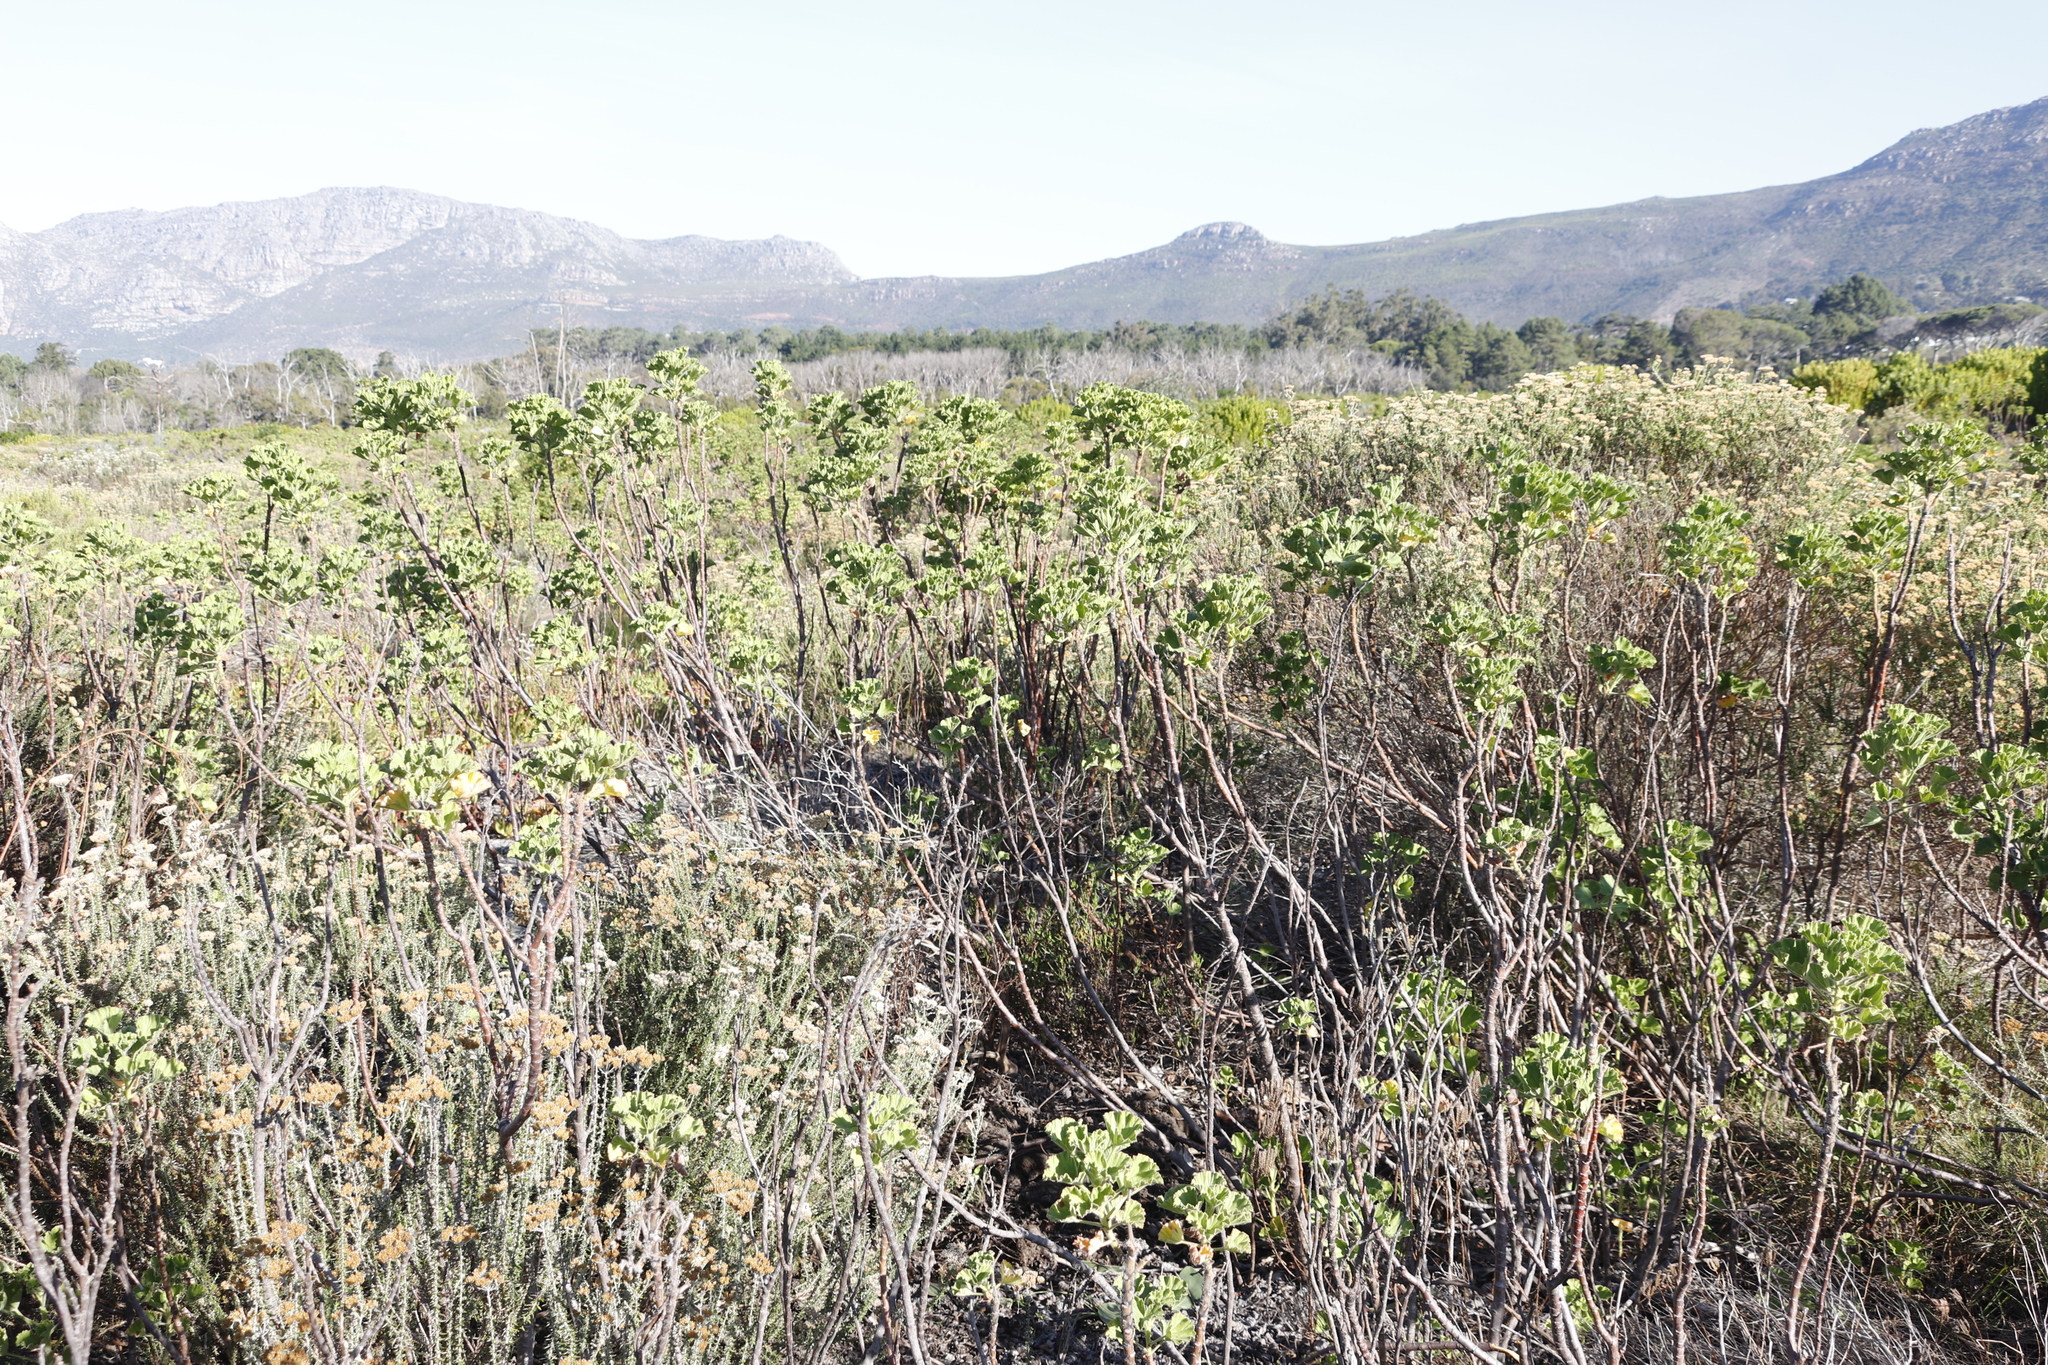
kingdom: Plantae
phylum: Tracheophyta
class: Magnoliopsida
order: Geraniales
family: Geraniaceae
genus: Pelargonium
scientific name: Pelargonium cucullatum
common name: Tree pelargonium
